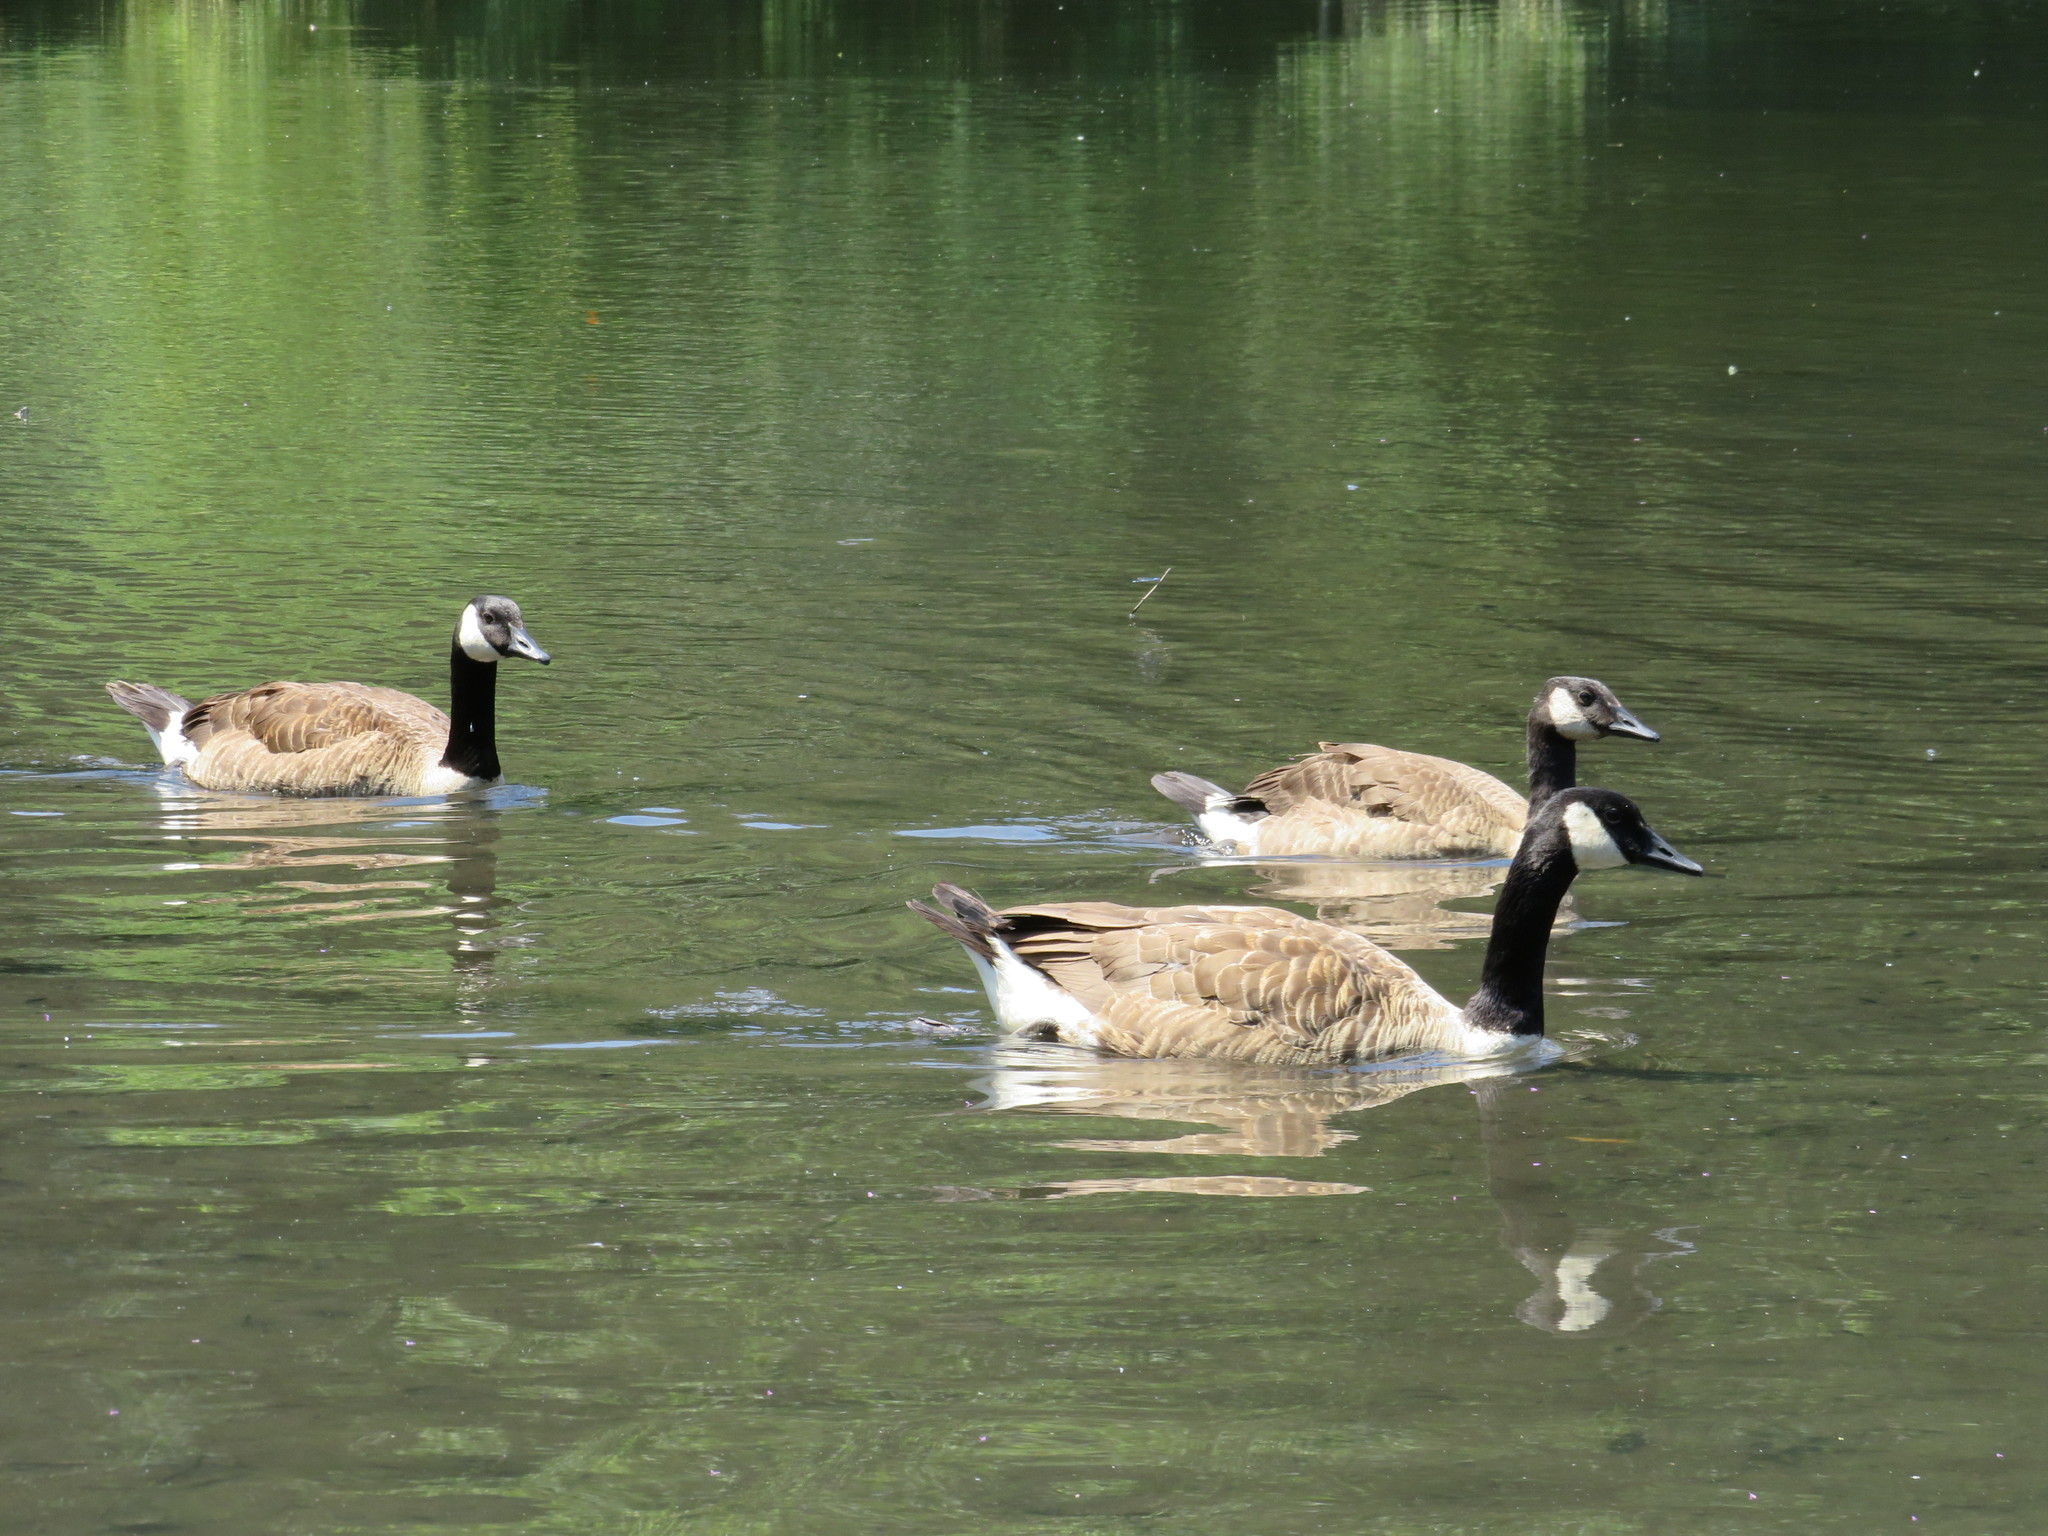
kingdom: Animalia
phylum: Chordata
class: Aves
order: Anseriformes
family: Anatidae
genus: Branta
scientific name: Branta canadensis
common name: Canada goose
